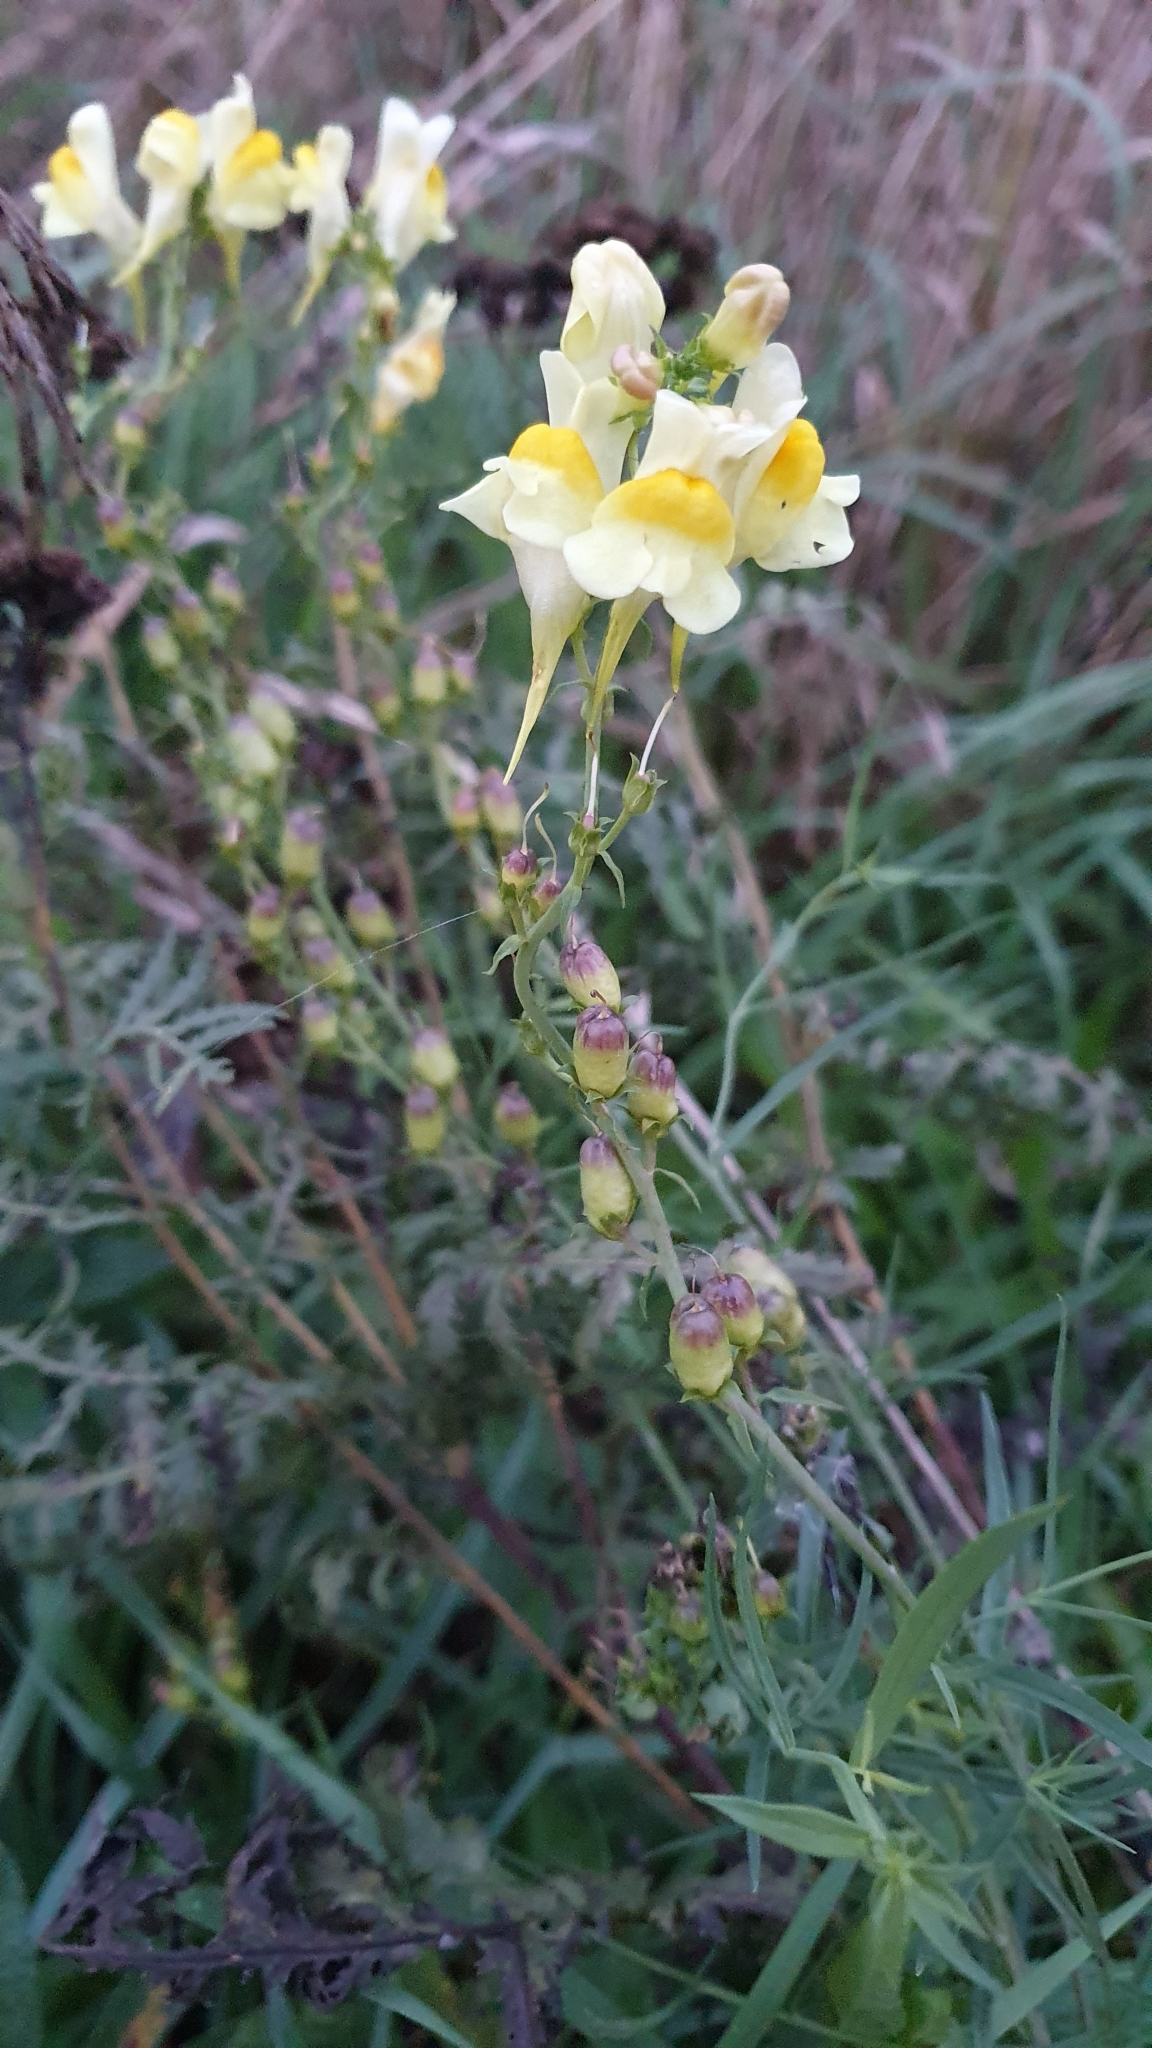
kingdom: Plantae
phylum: Tracheophyta
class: Magnoliopsida
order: Lamiales
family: Plantaginaceae
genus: Linaria
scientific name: Linaria vulgaris
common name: Butter and eggs
